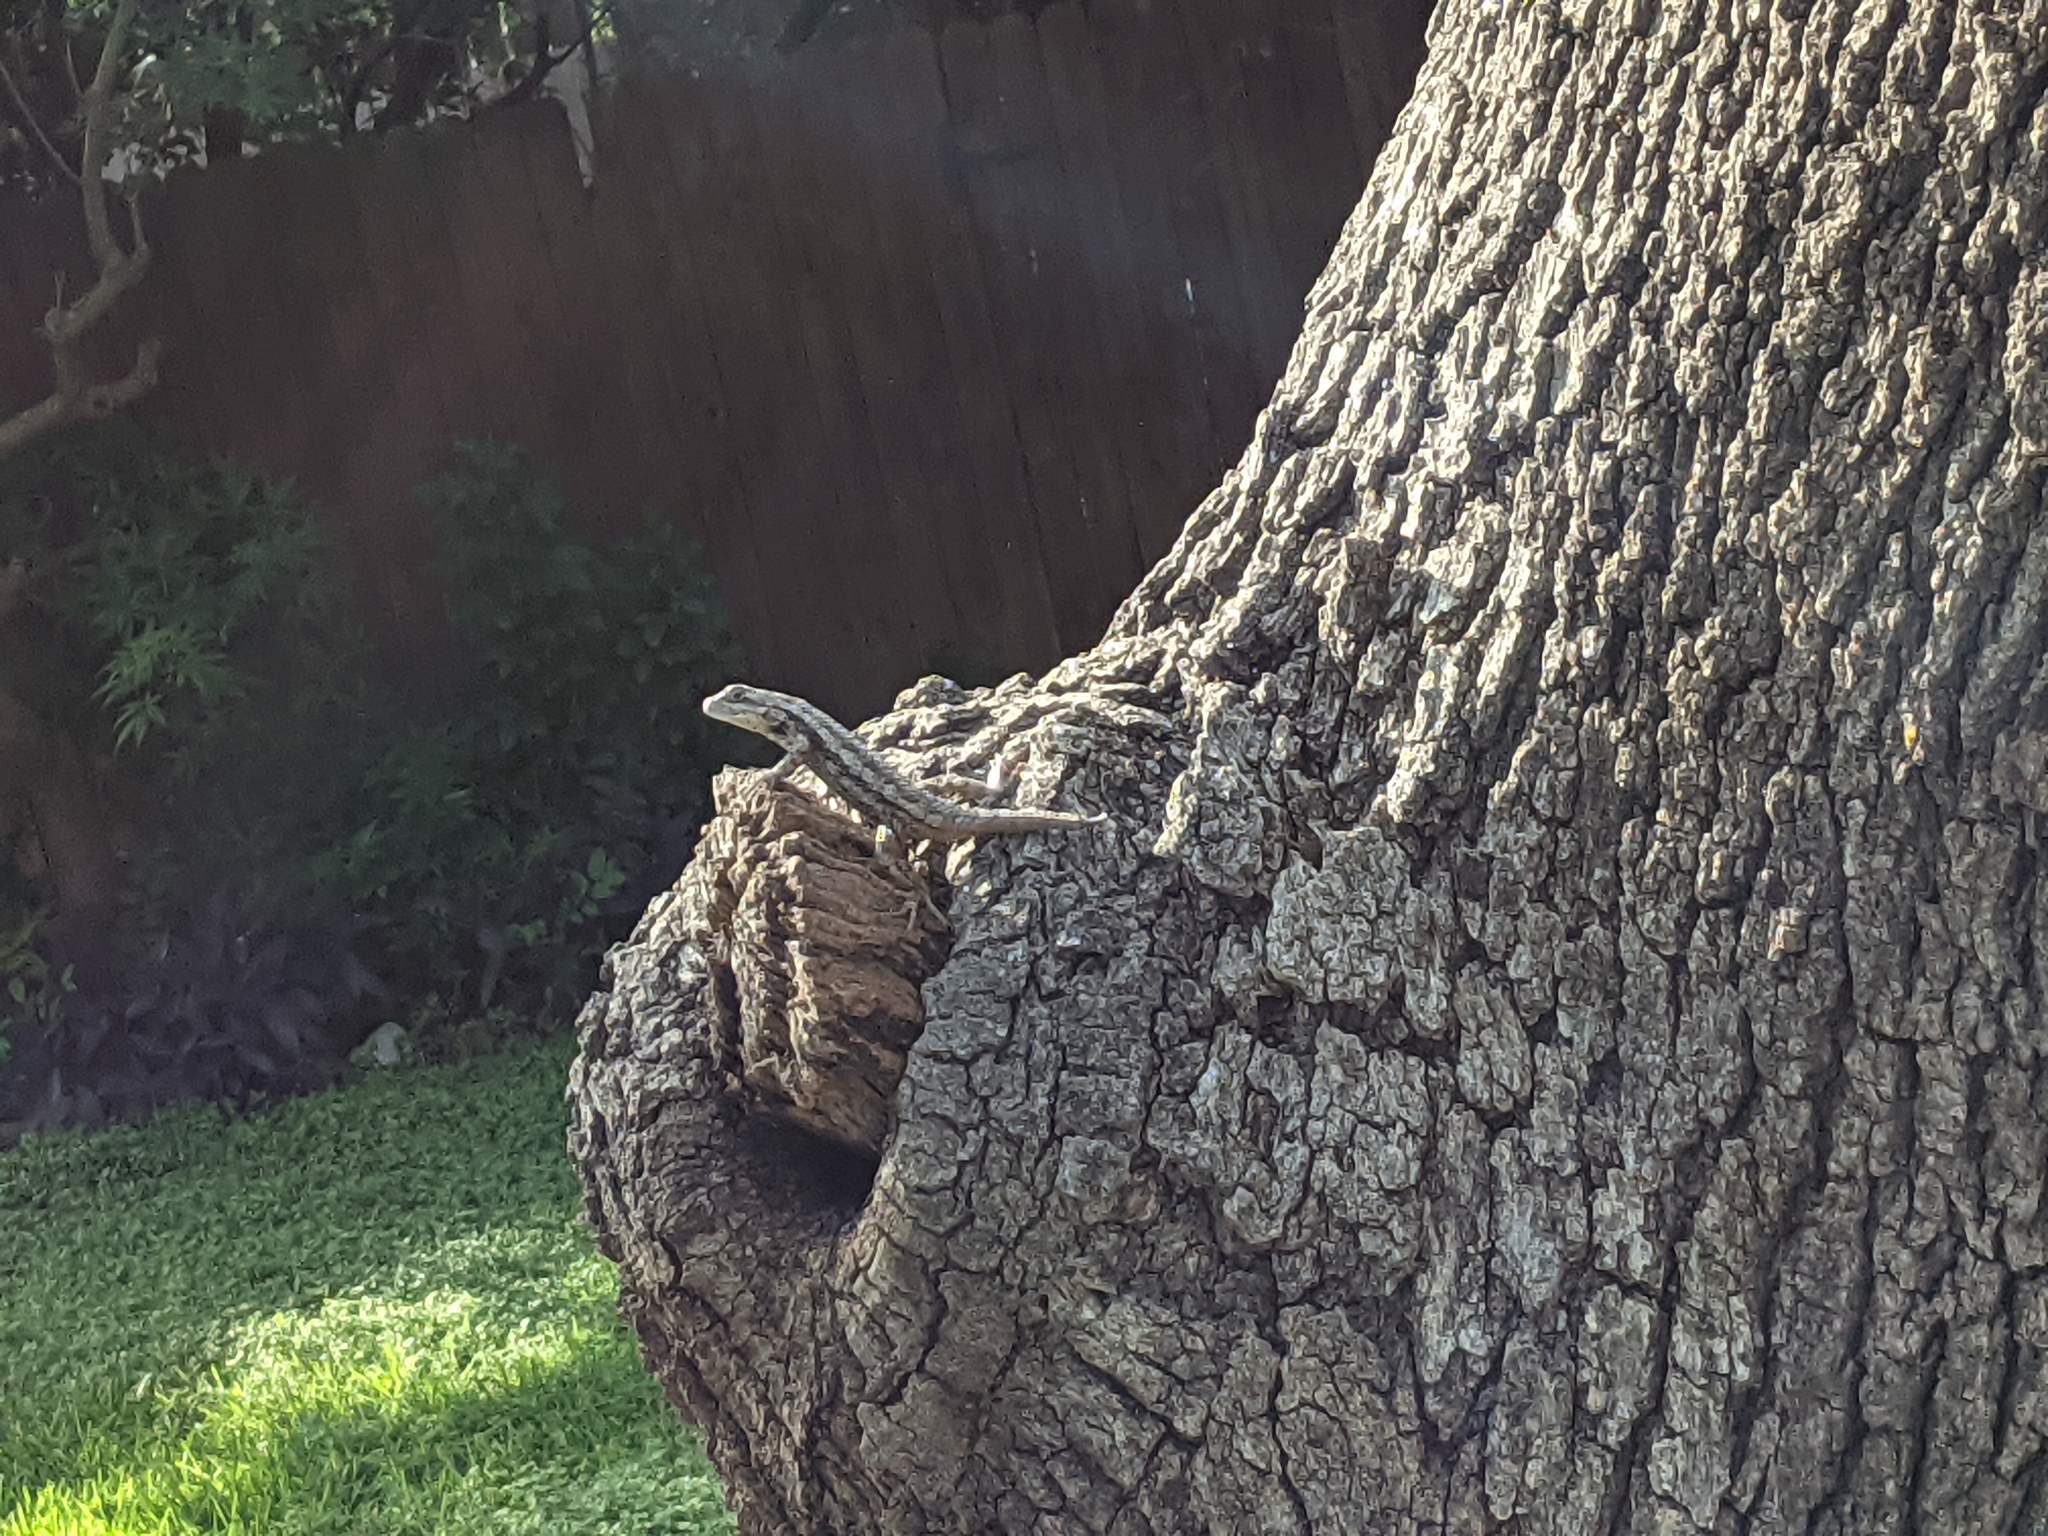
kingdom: Animalia
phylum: Chordata
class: Squamata
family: Phrynosomatidae
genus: Sceloporus
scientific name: Sceloporus olivaceus
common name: Texas spiny lizard
